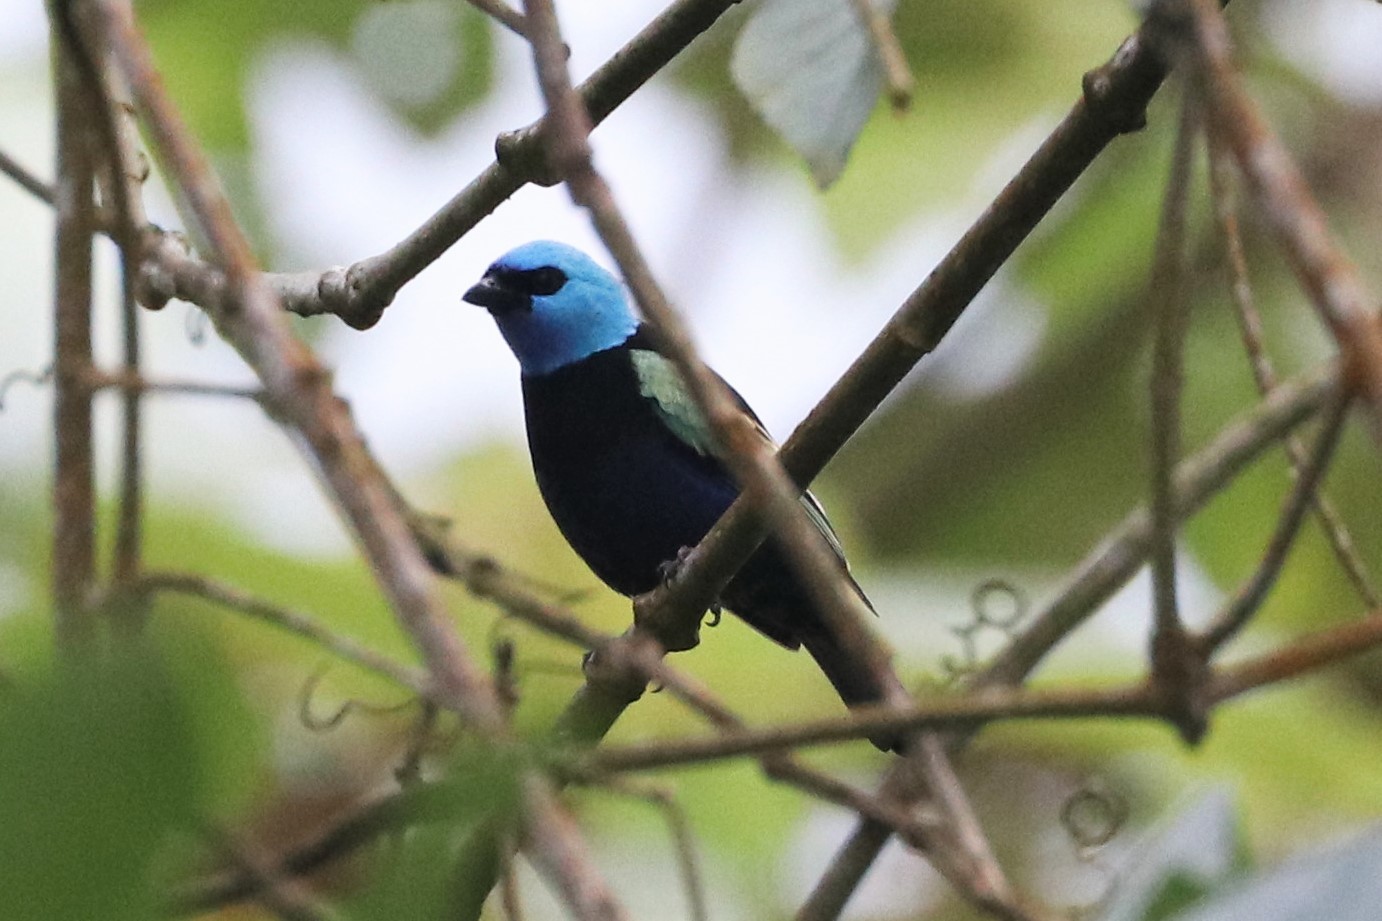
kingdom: Animalia
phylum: Chordata
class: Aves
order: Passeriformes
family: Thraupidae
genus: Stilpnia
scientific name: Stilpnia cyanicollis
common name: Blue-necked tanager
